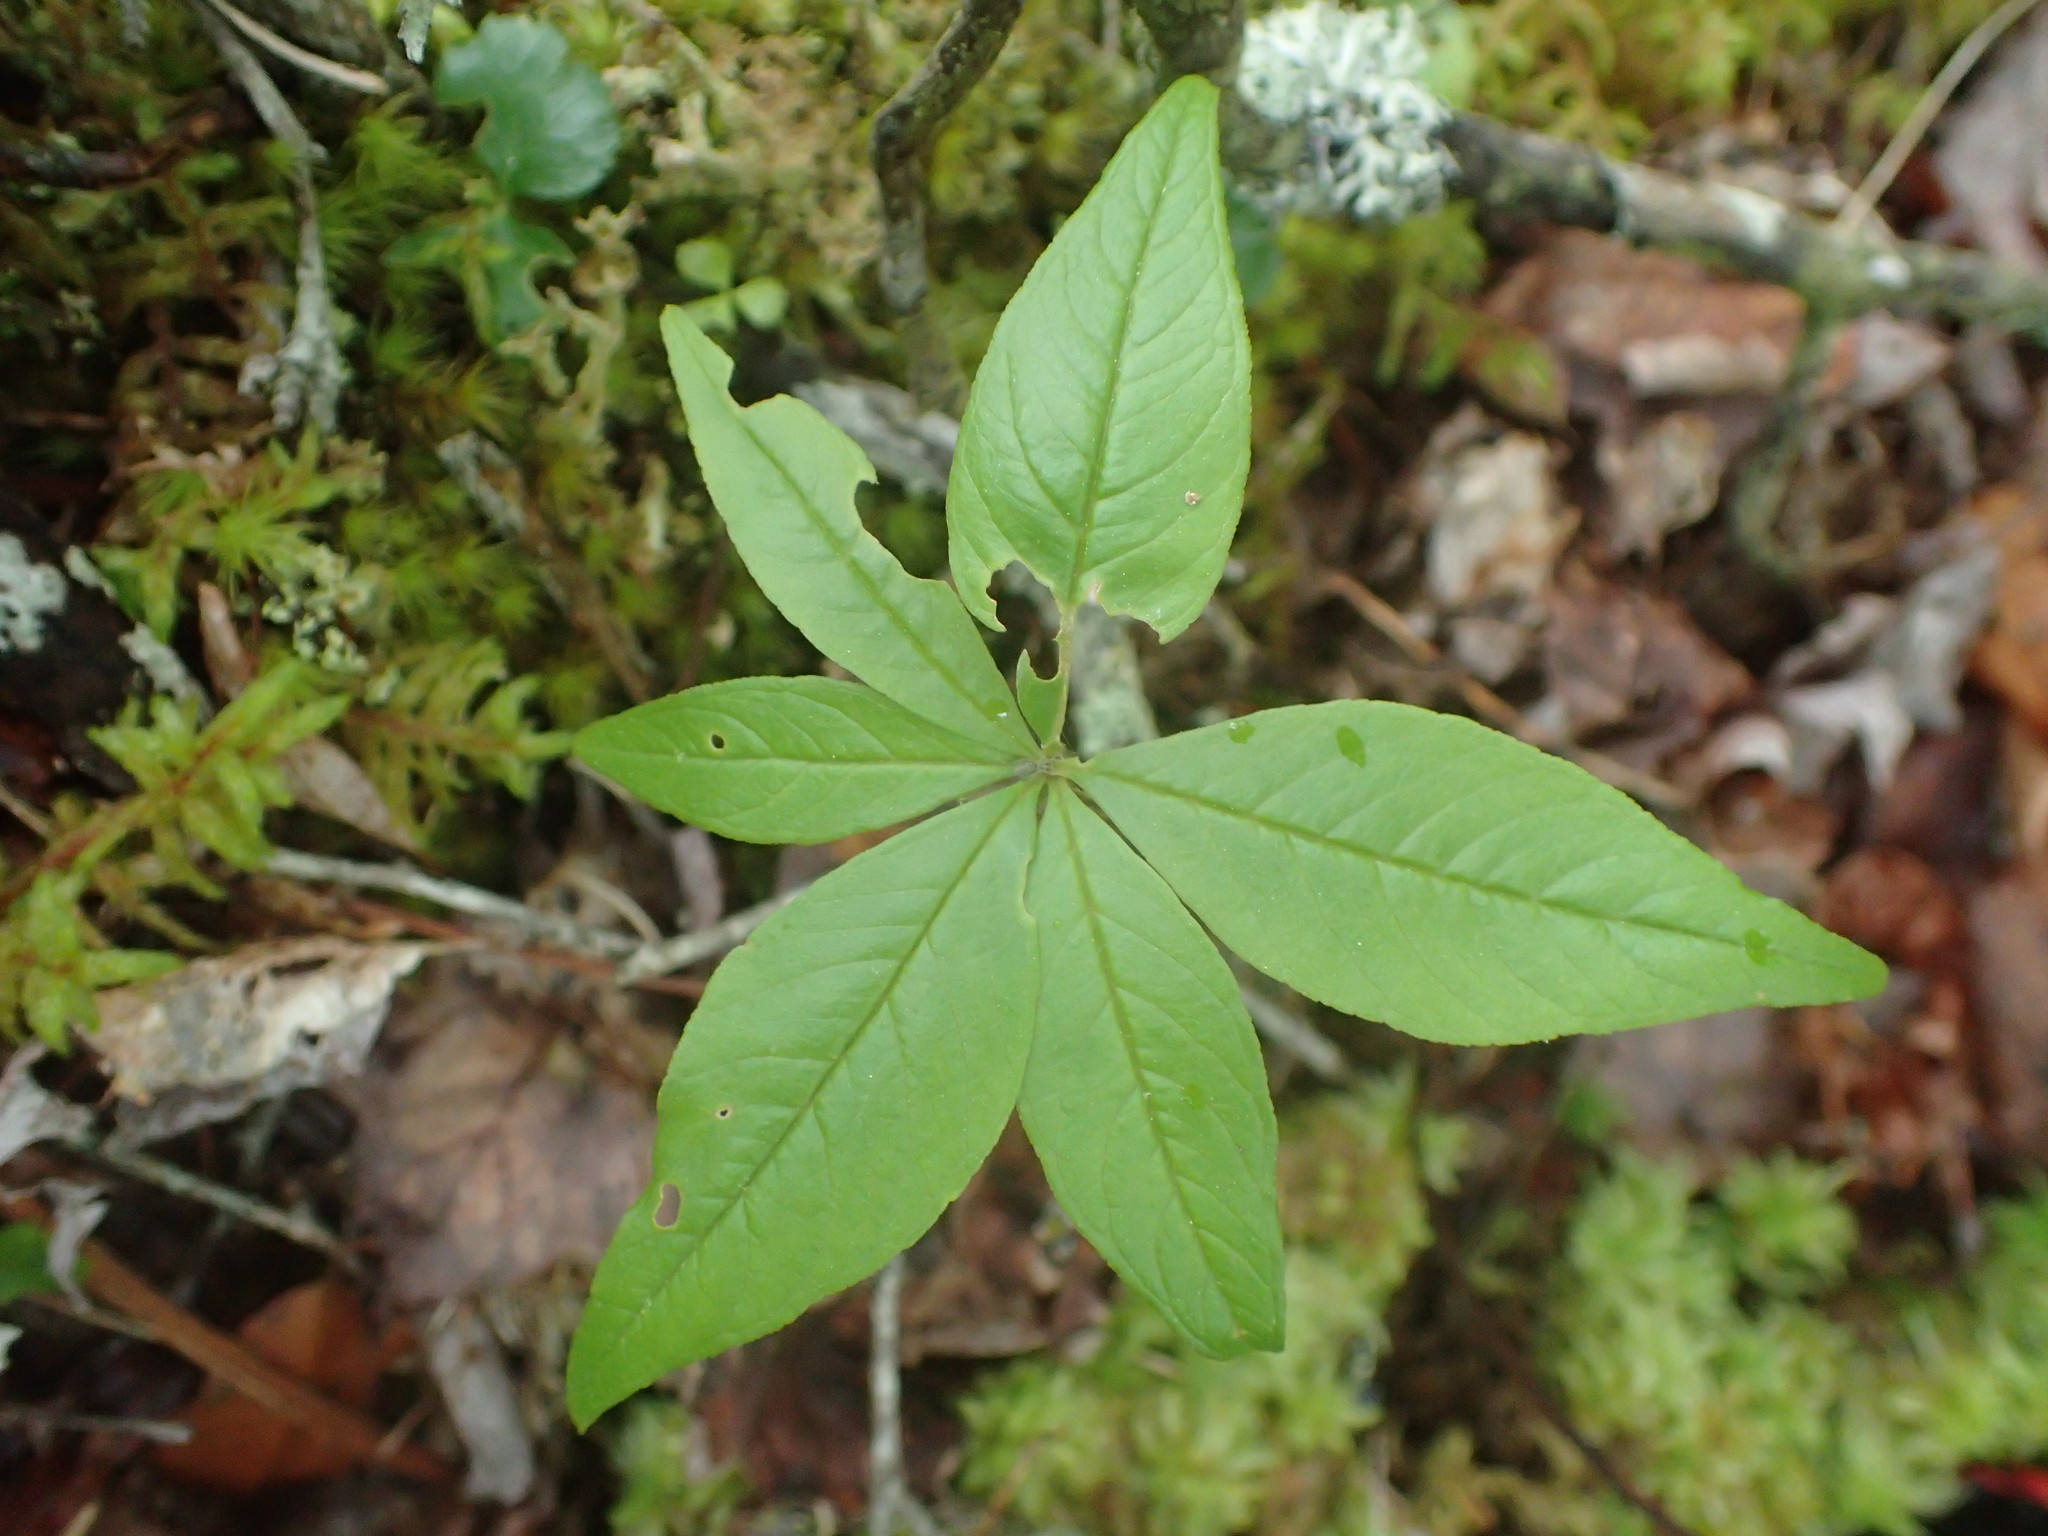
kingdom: Plantae
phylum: Tracheophyta
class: Magnoliopsida
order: Ericales
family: Primulaceae
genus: Lysimachia
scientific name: Lysimachia borealis
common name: American starflower
